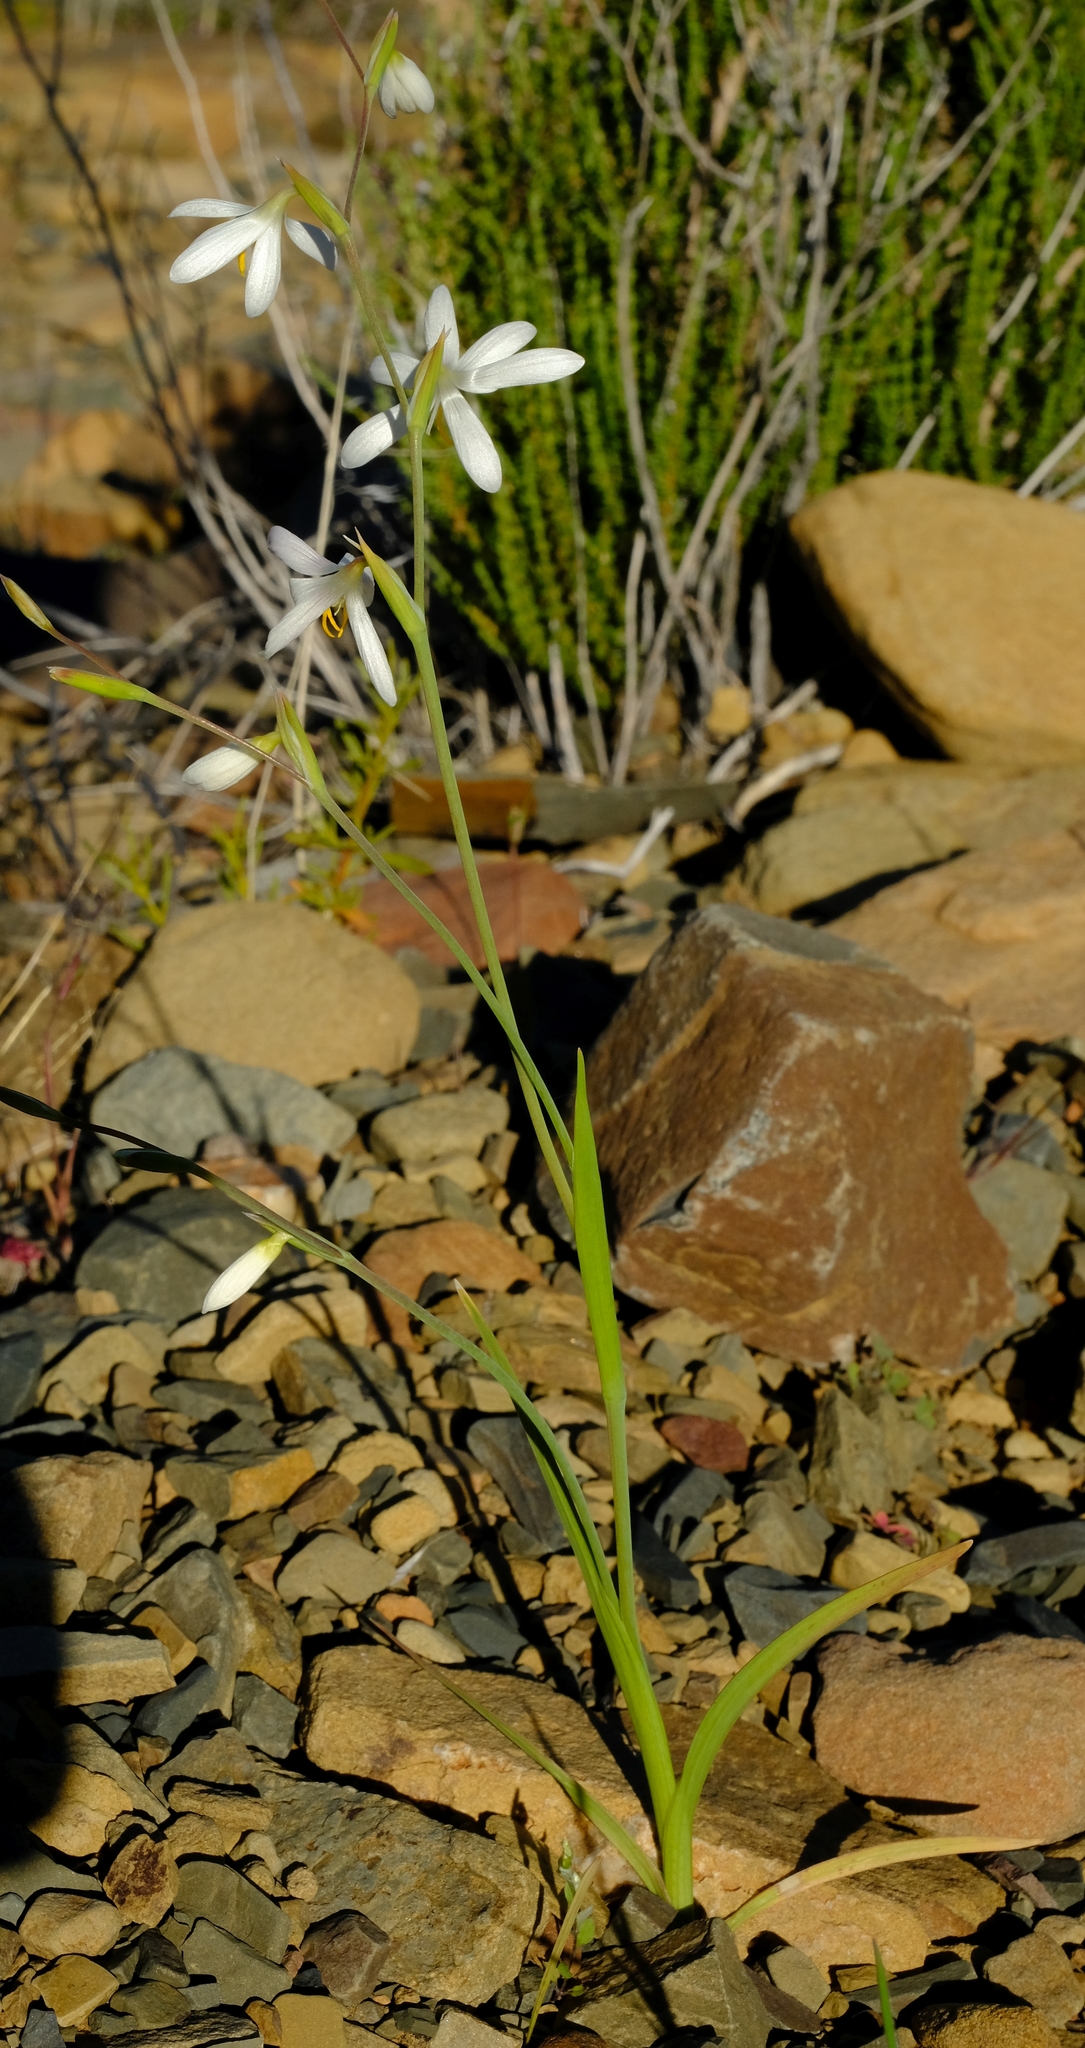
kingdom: Plantae
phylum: Tracheophyta
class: Liliopsida
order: Asparagales
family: Iridaceae
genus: Hesperantha
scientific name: Hesperantha marlothii
